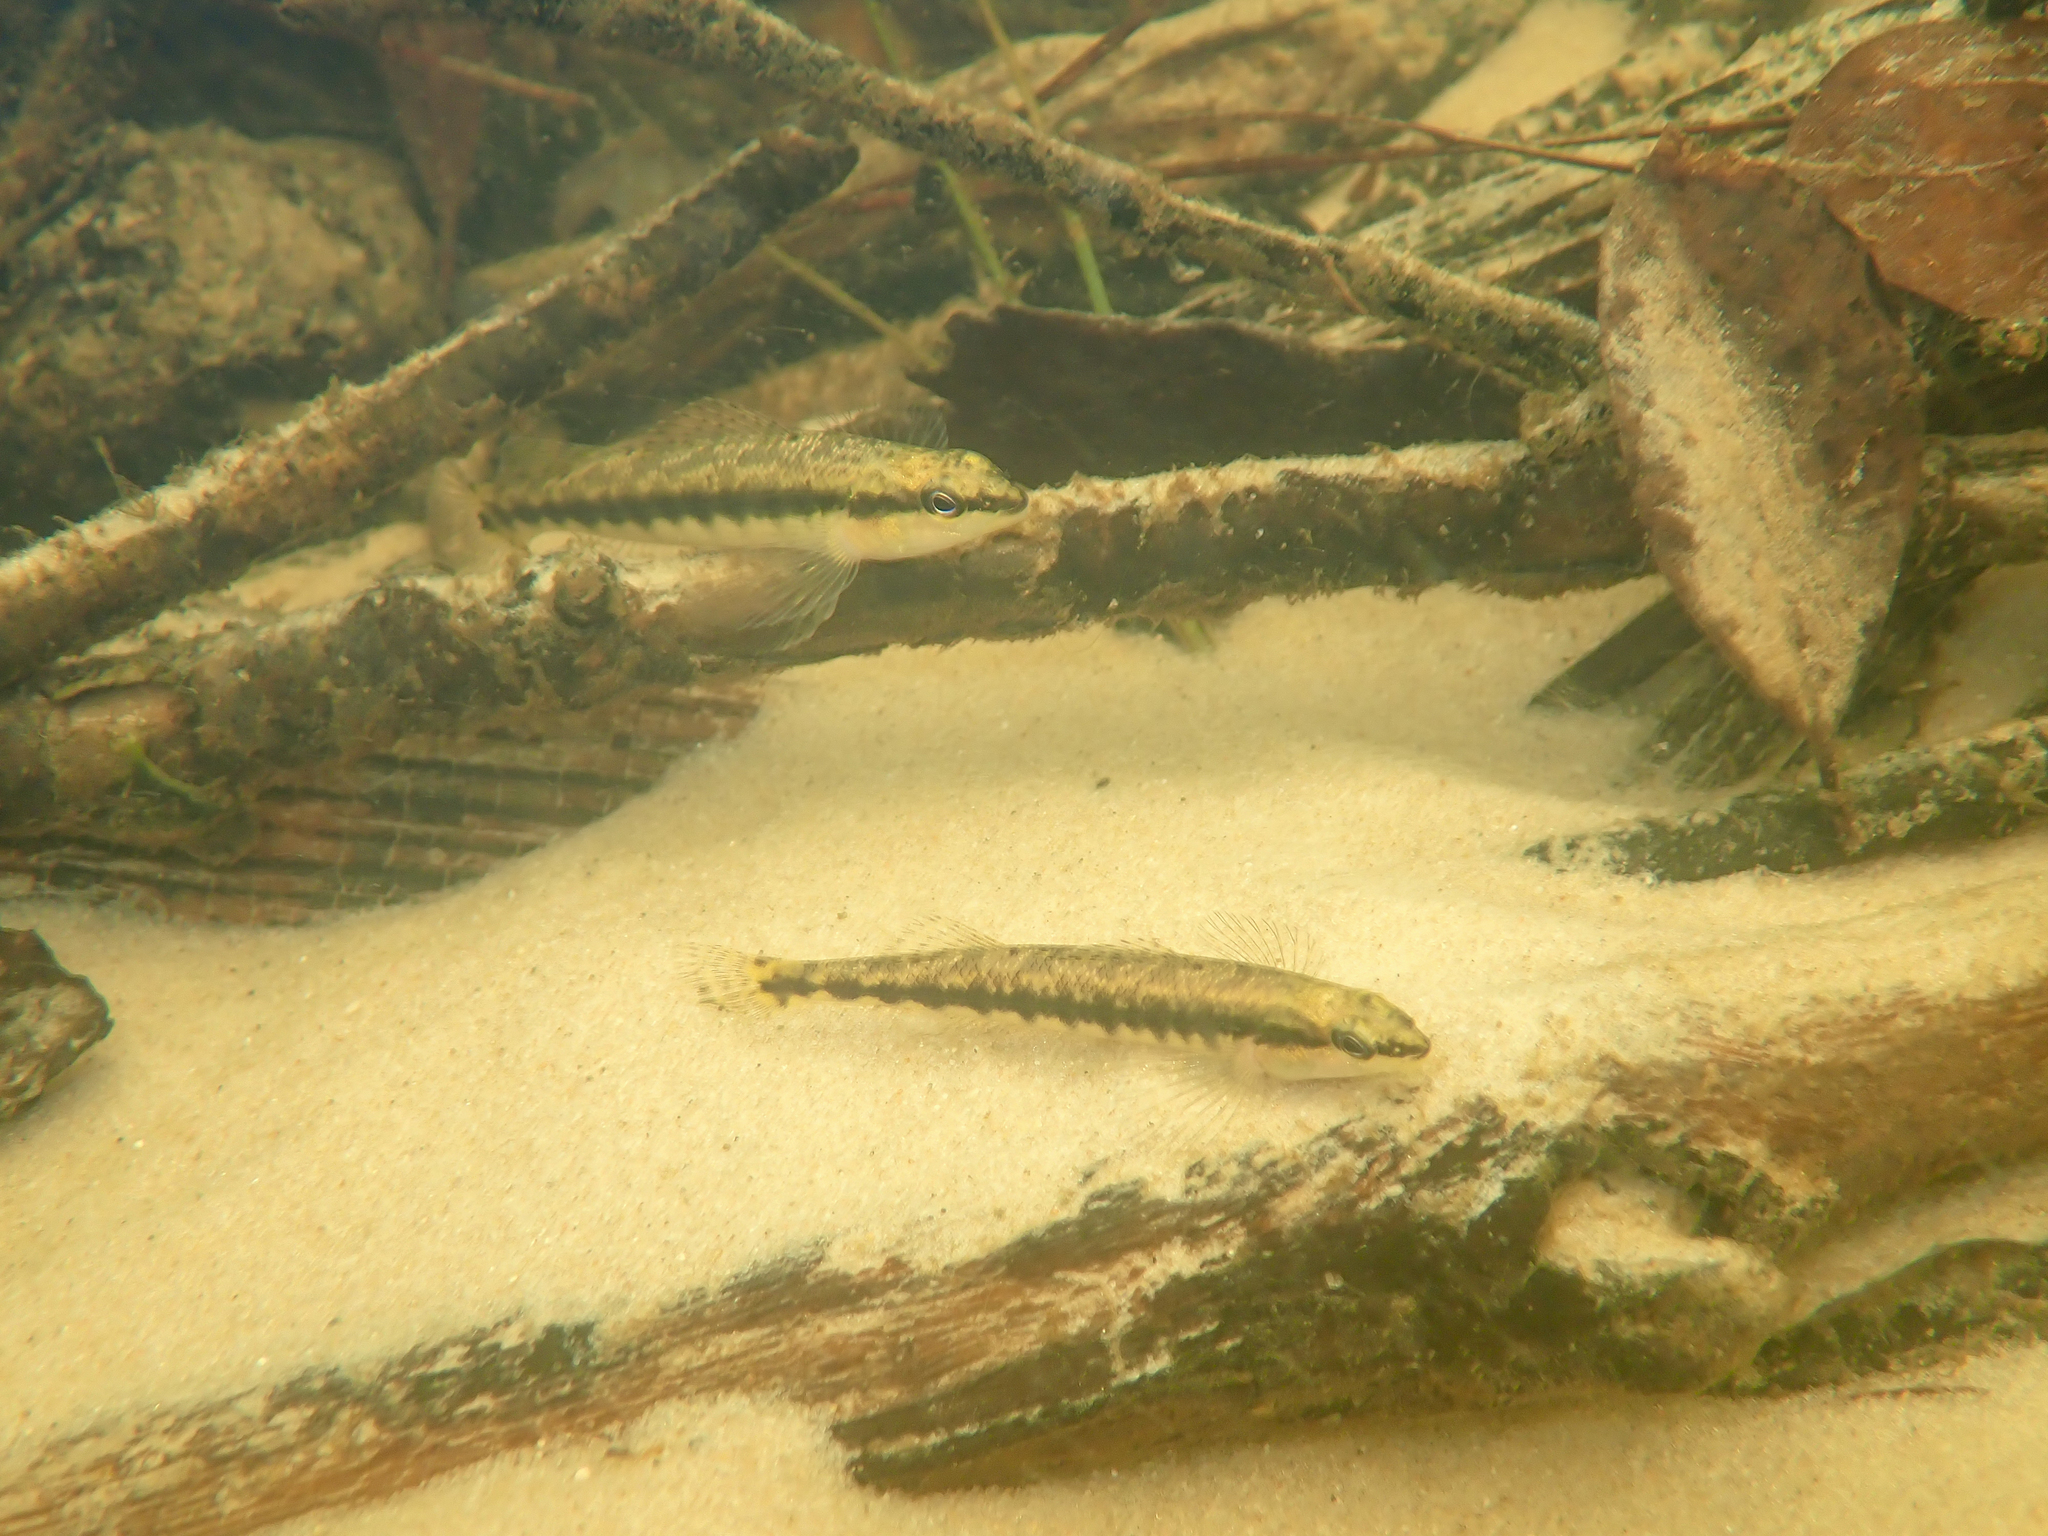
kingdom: Animalia
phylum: Chordata
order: Perciformes
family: Percidae
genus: Percina
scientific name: Percina nigrofasciata
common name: Blackbanded darter
